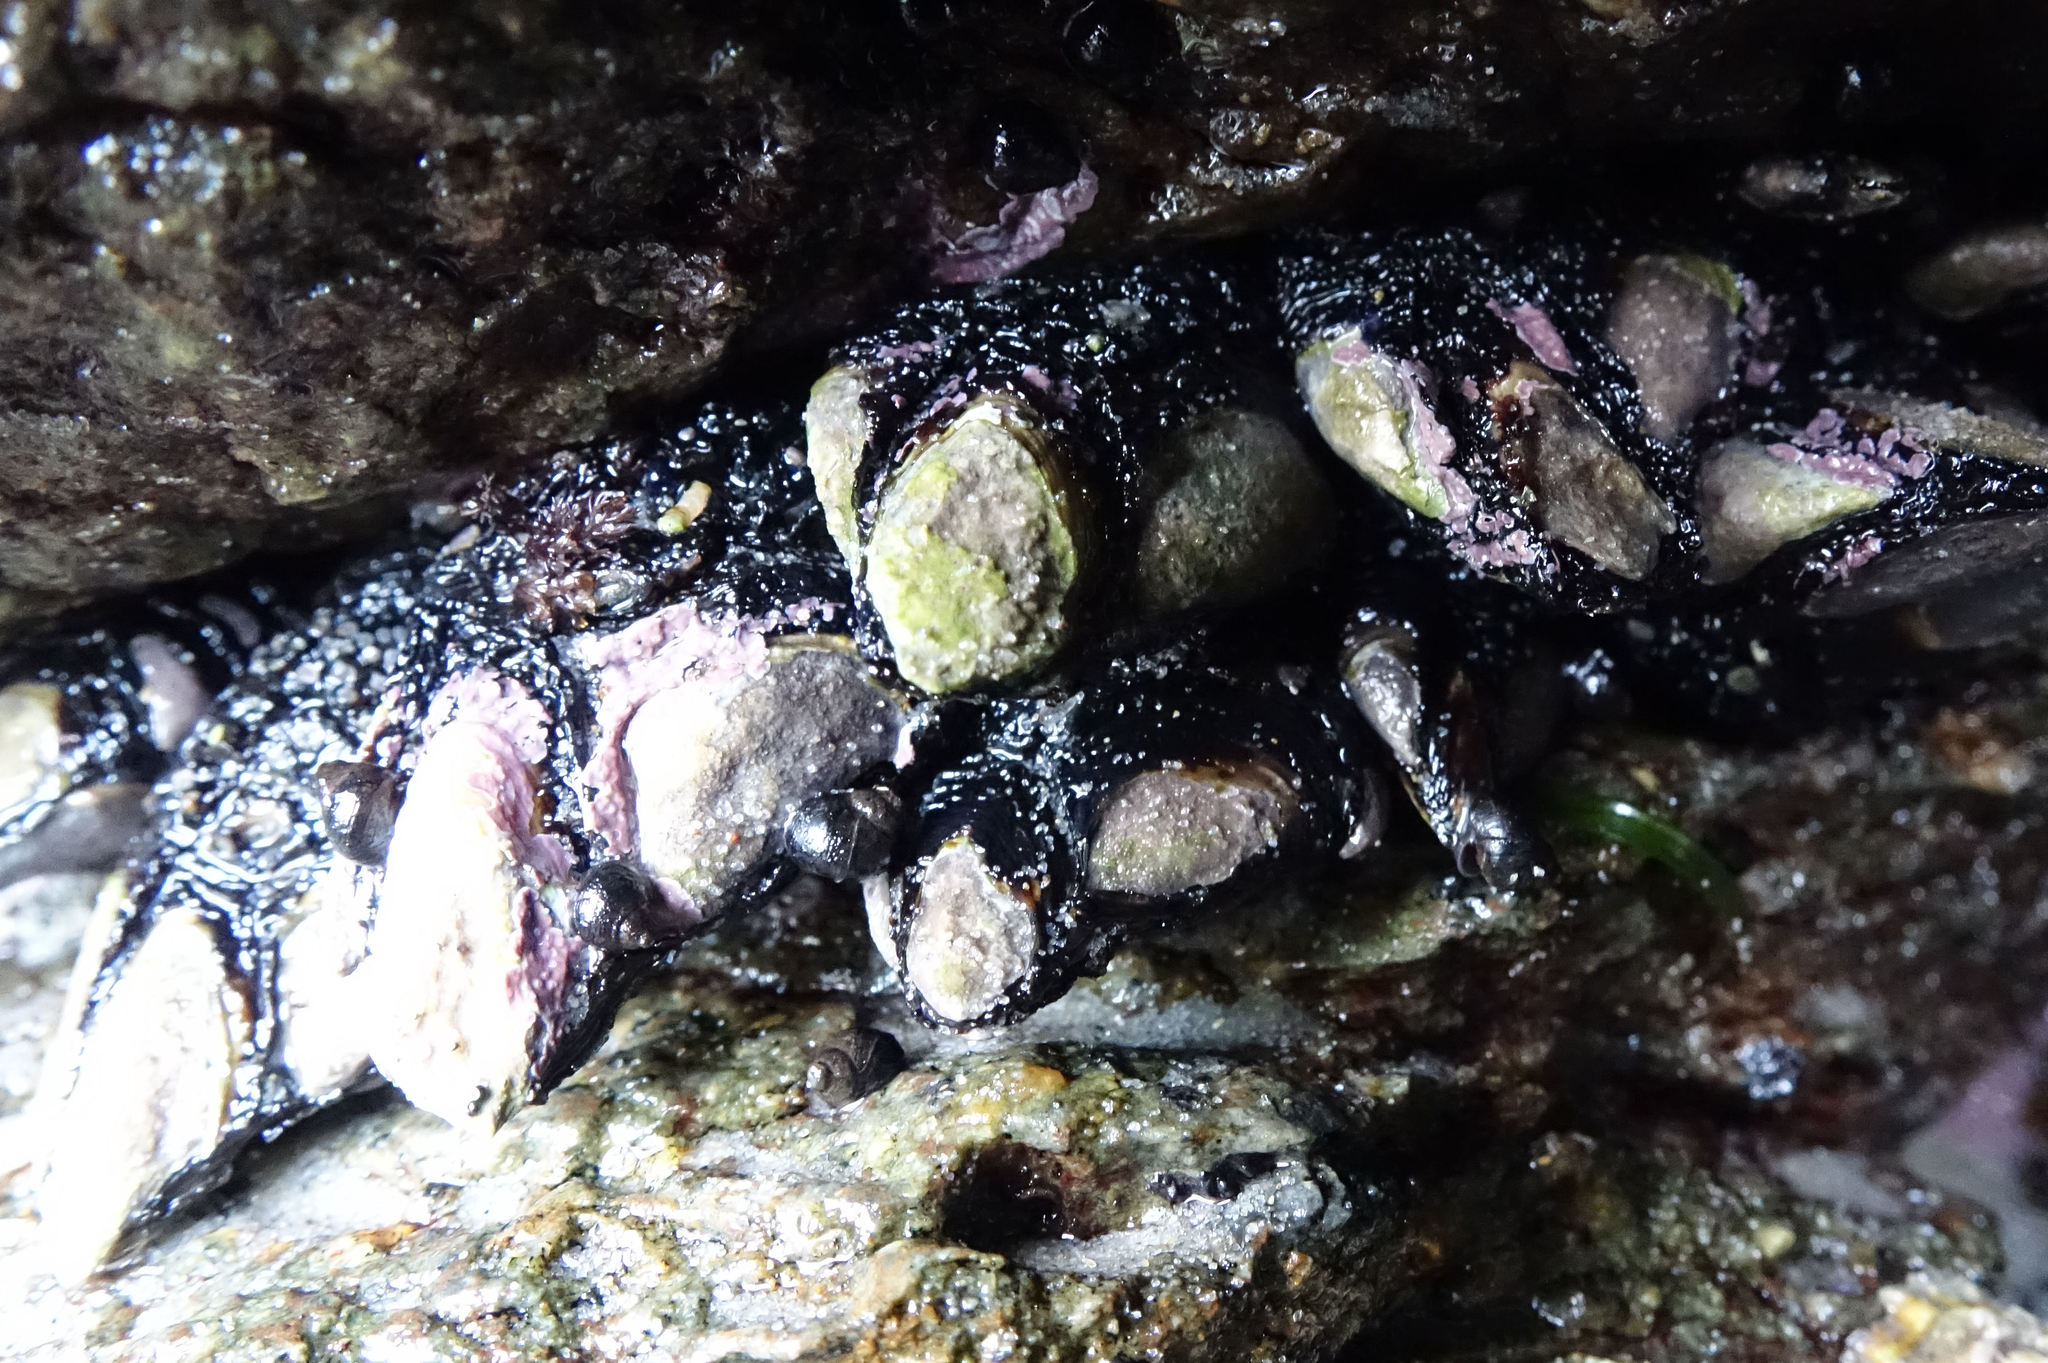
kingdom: Animalia
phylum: Arthropoda
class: Maxillopoda
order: Pedunculata
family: Calanticidae
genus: Calantica
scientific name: Calantica spinosa
